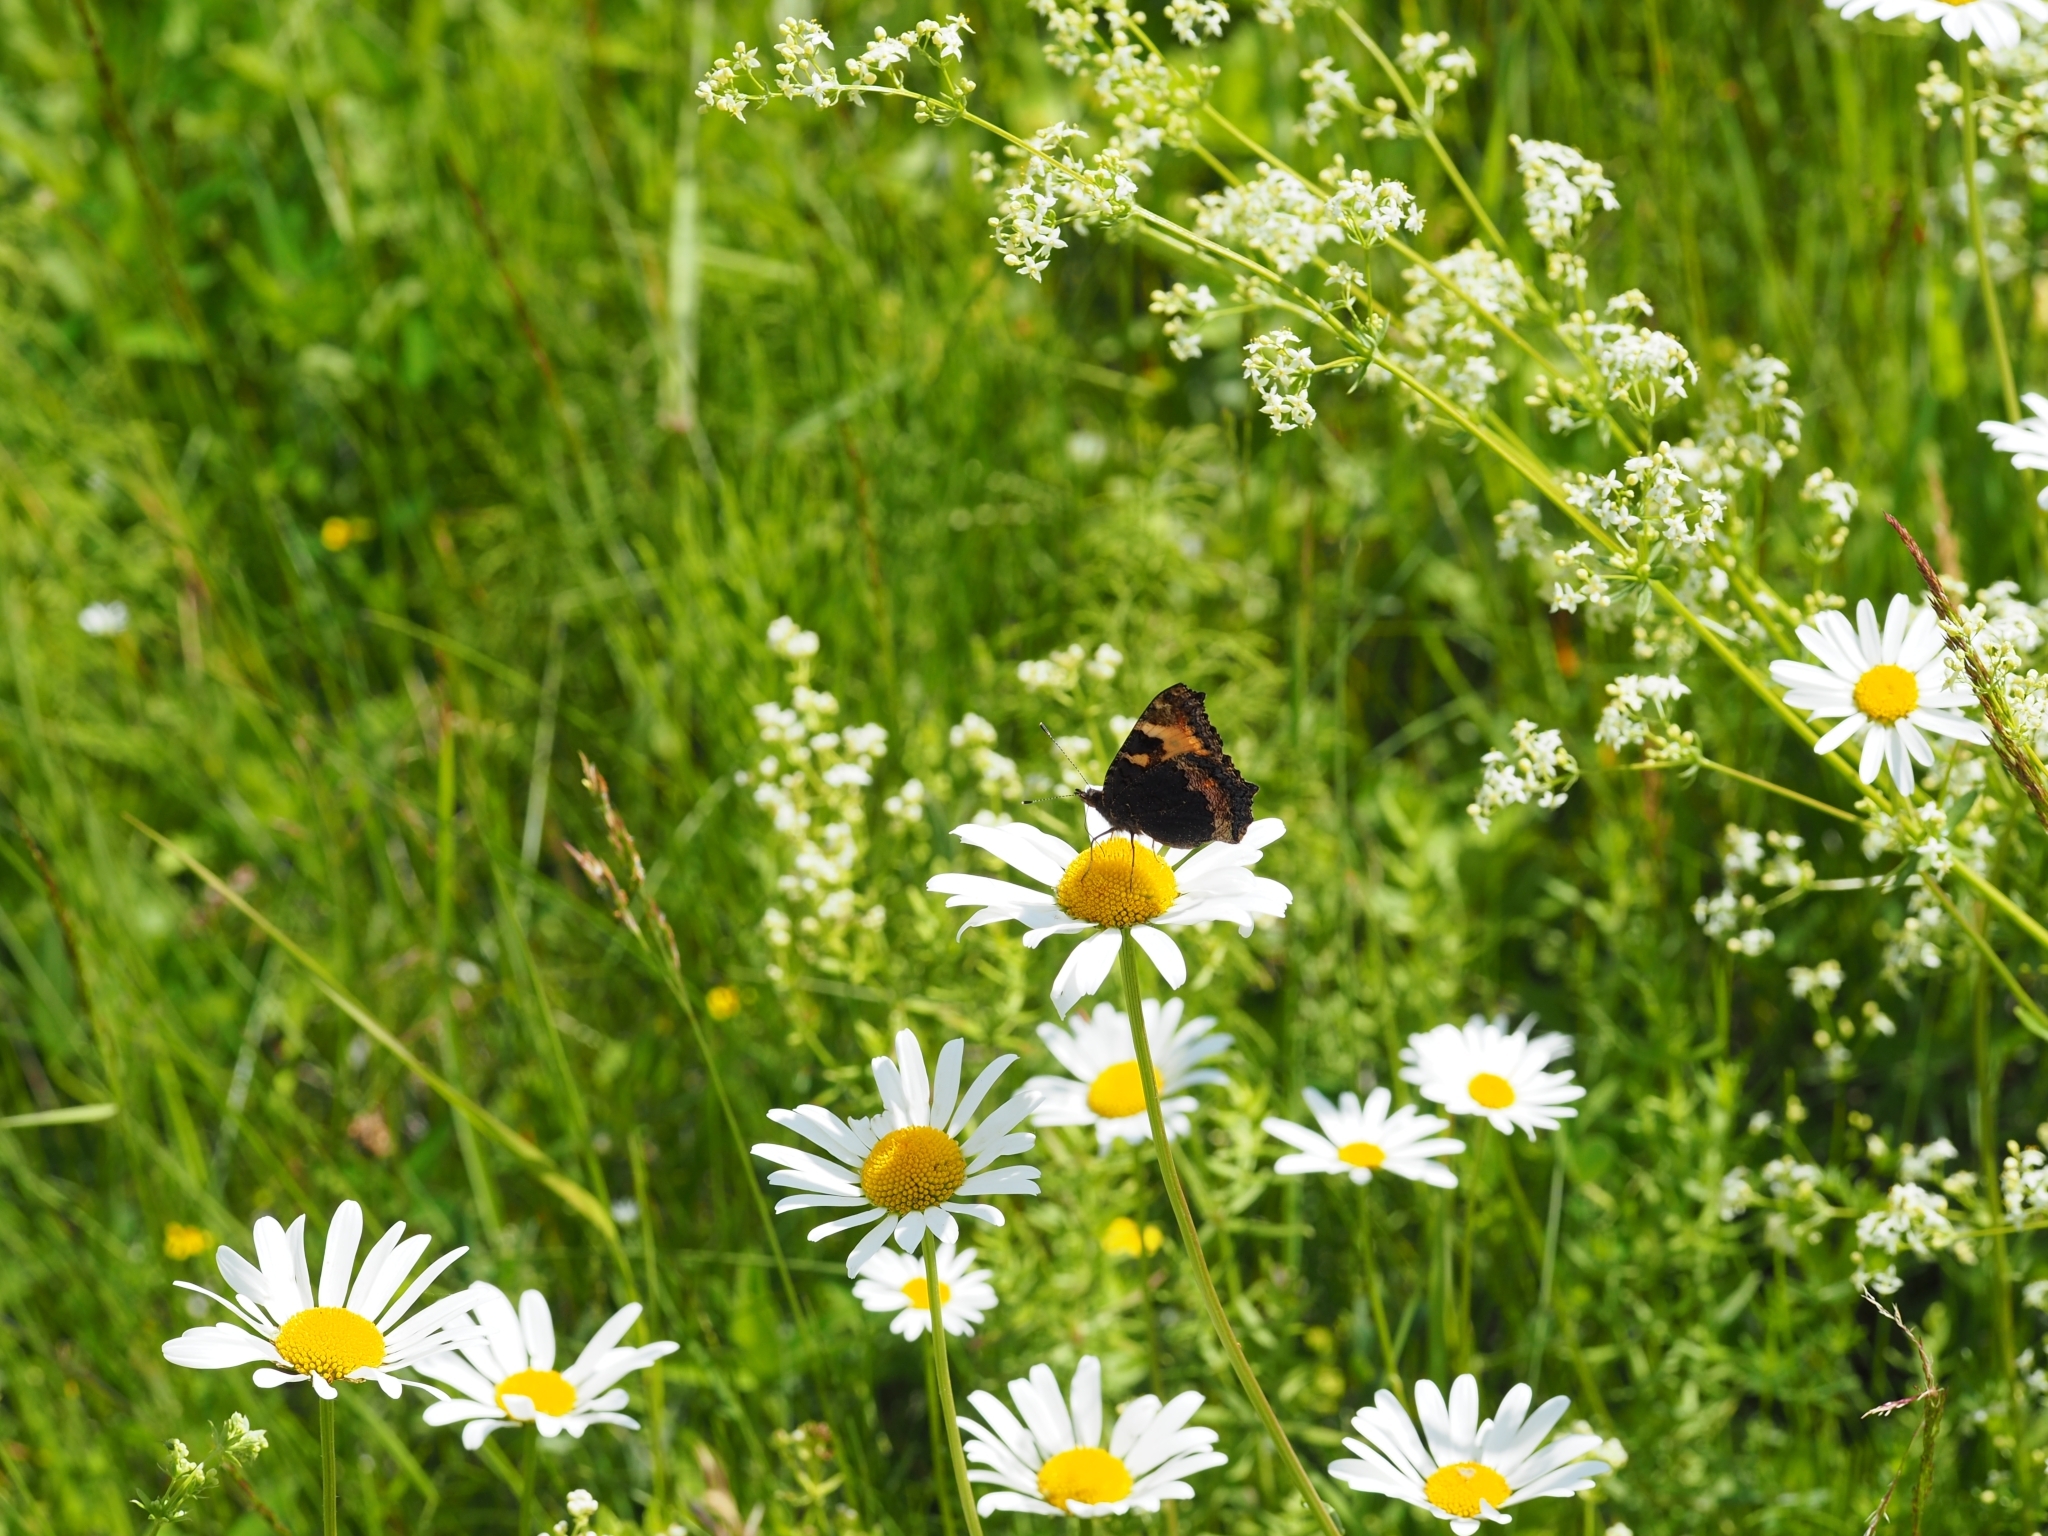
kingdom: Animalia
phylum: Arthropoda
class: Insecta
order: Lepidoptera
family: Nymphalidae
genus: Aglais
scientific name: Aglais urticae
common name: Small tortoiseshell
